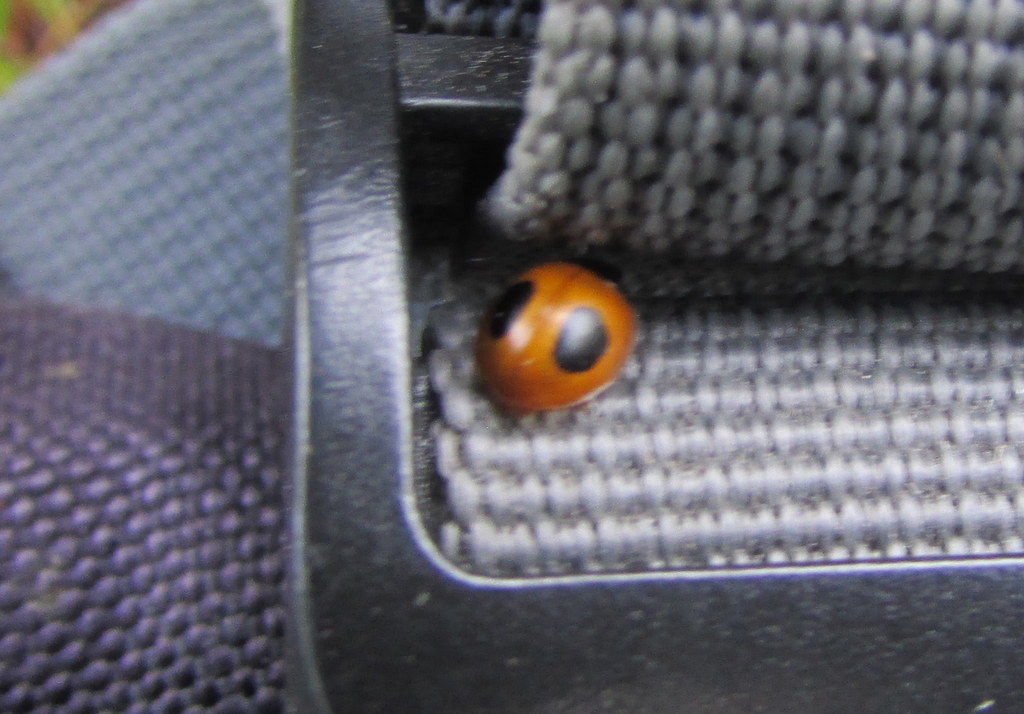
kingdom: Animalia
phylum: Arthropoda
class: Insecta
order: Coleoptera
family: Coccinellidae
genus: Zagreus
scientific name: Zagreus bimaculosus
